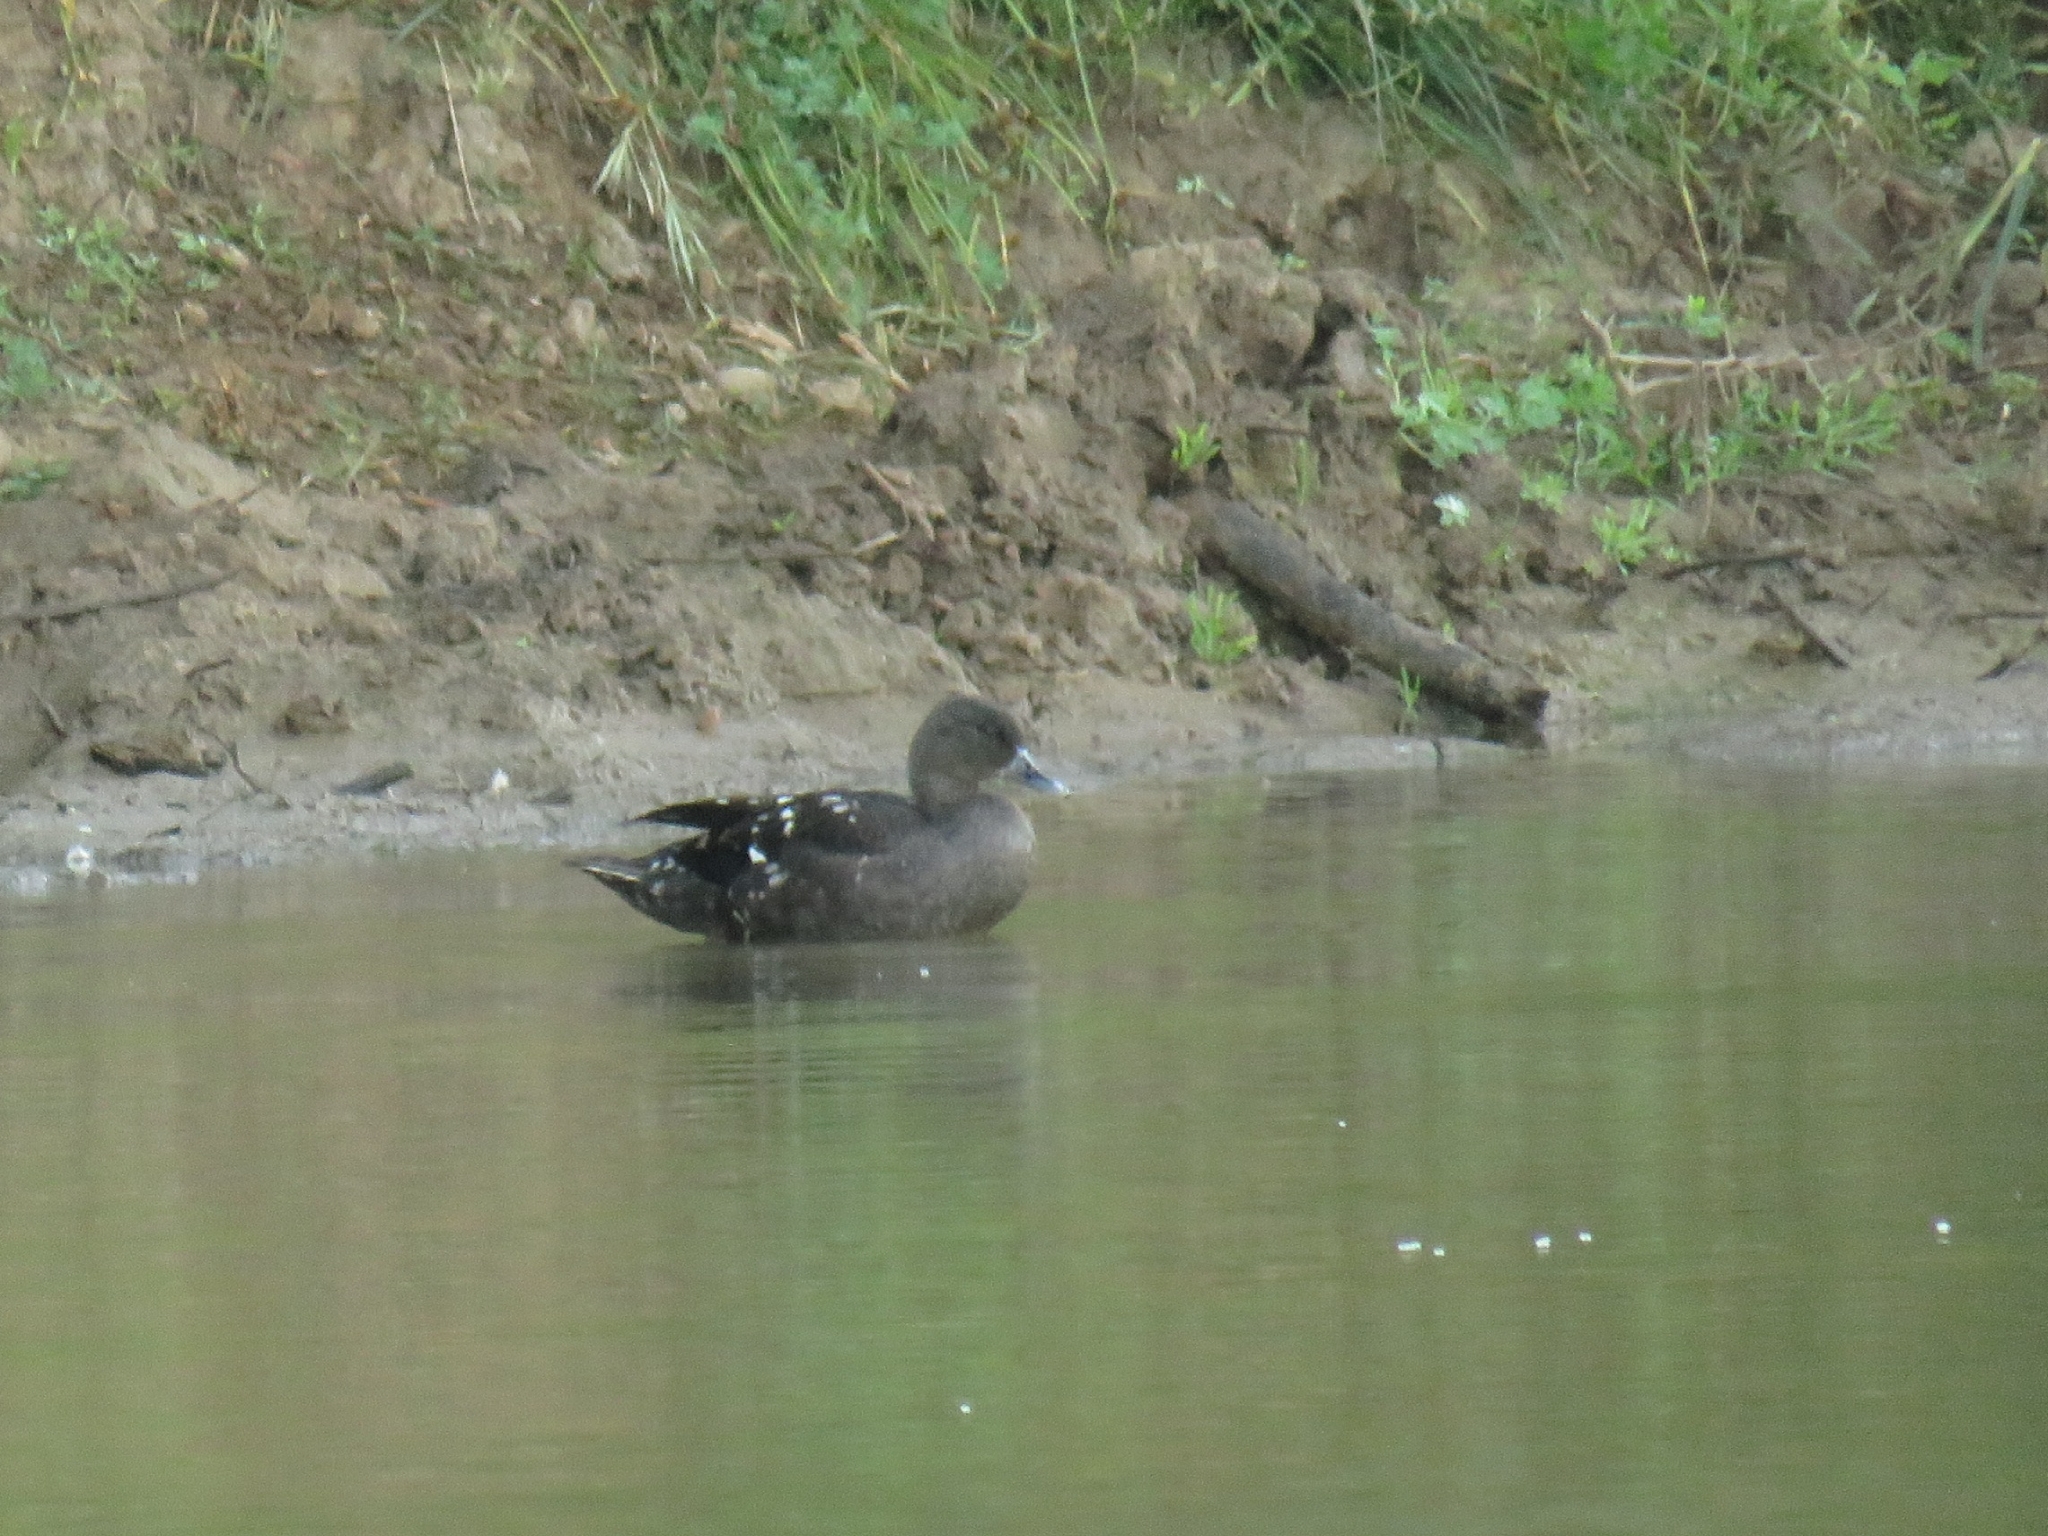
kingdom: Animalia
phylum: Chordata
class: Aves
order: Anseriformes
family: Anatidae
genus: Anas
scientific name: Anas sparsa
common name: African black duck
